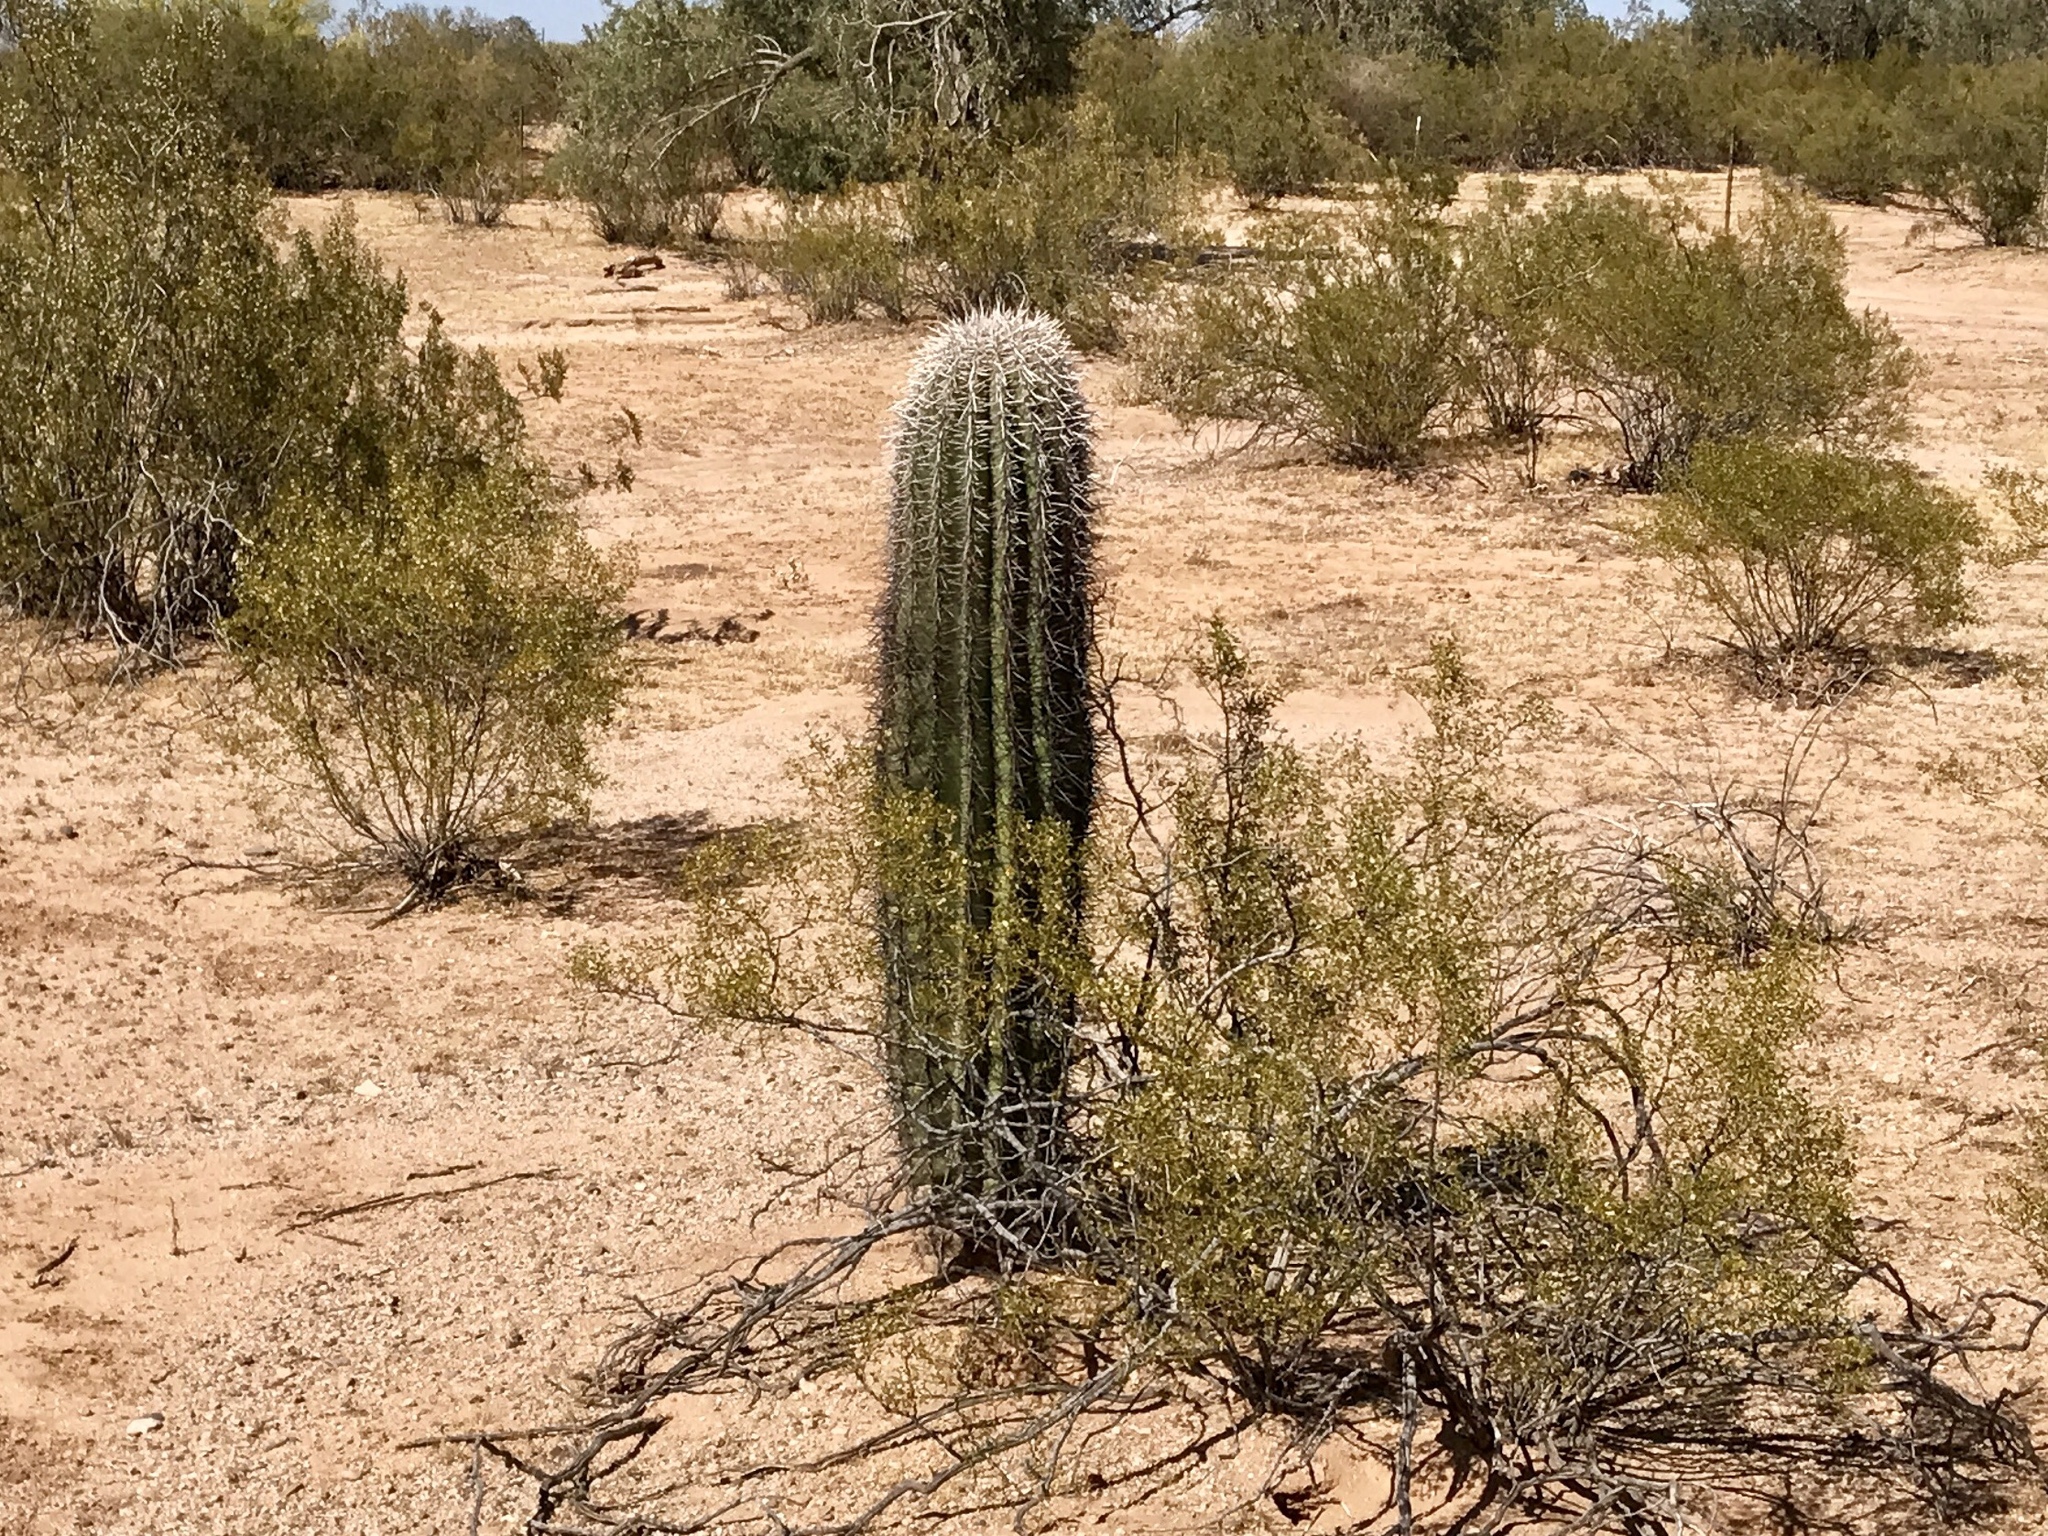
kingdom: Plantae
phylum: Tracheophyta
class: Magnoliopsida
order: Caryophyllales
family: Cactaceae
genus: Carnegiea
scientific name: Carnegiea gigantea
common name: Saguaro
